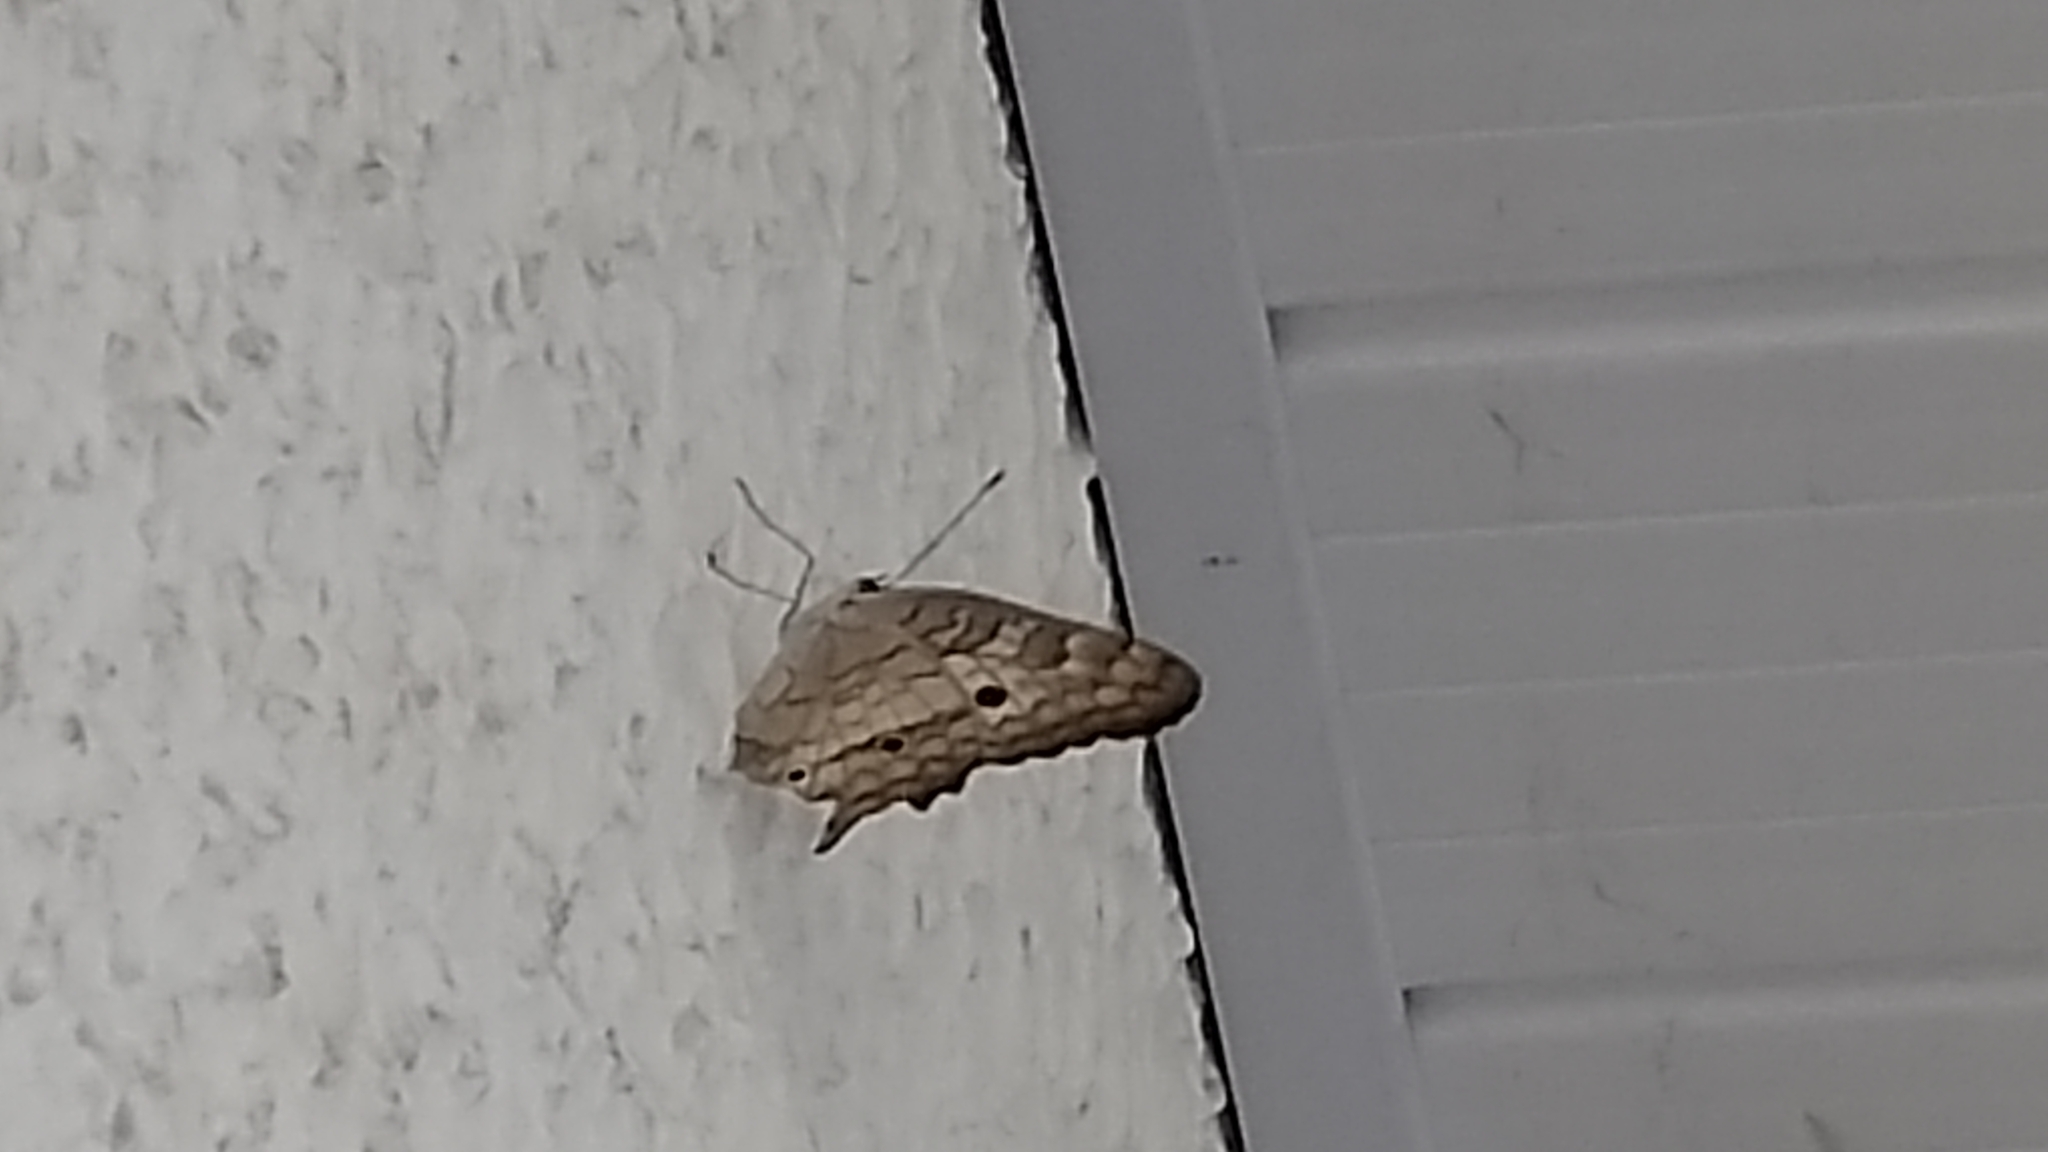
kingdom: Animalia
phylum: Arthropoda
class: Insecta
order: Lepidoptera
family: Nymphalidae
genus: Anartia
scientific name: Anartia jatrophae
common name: White peacock
